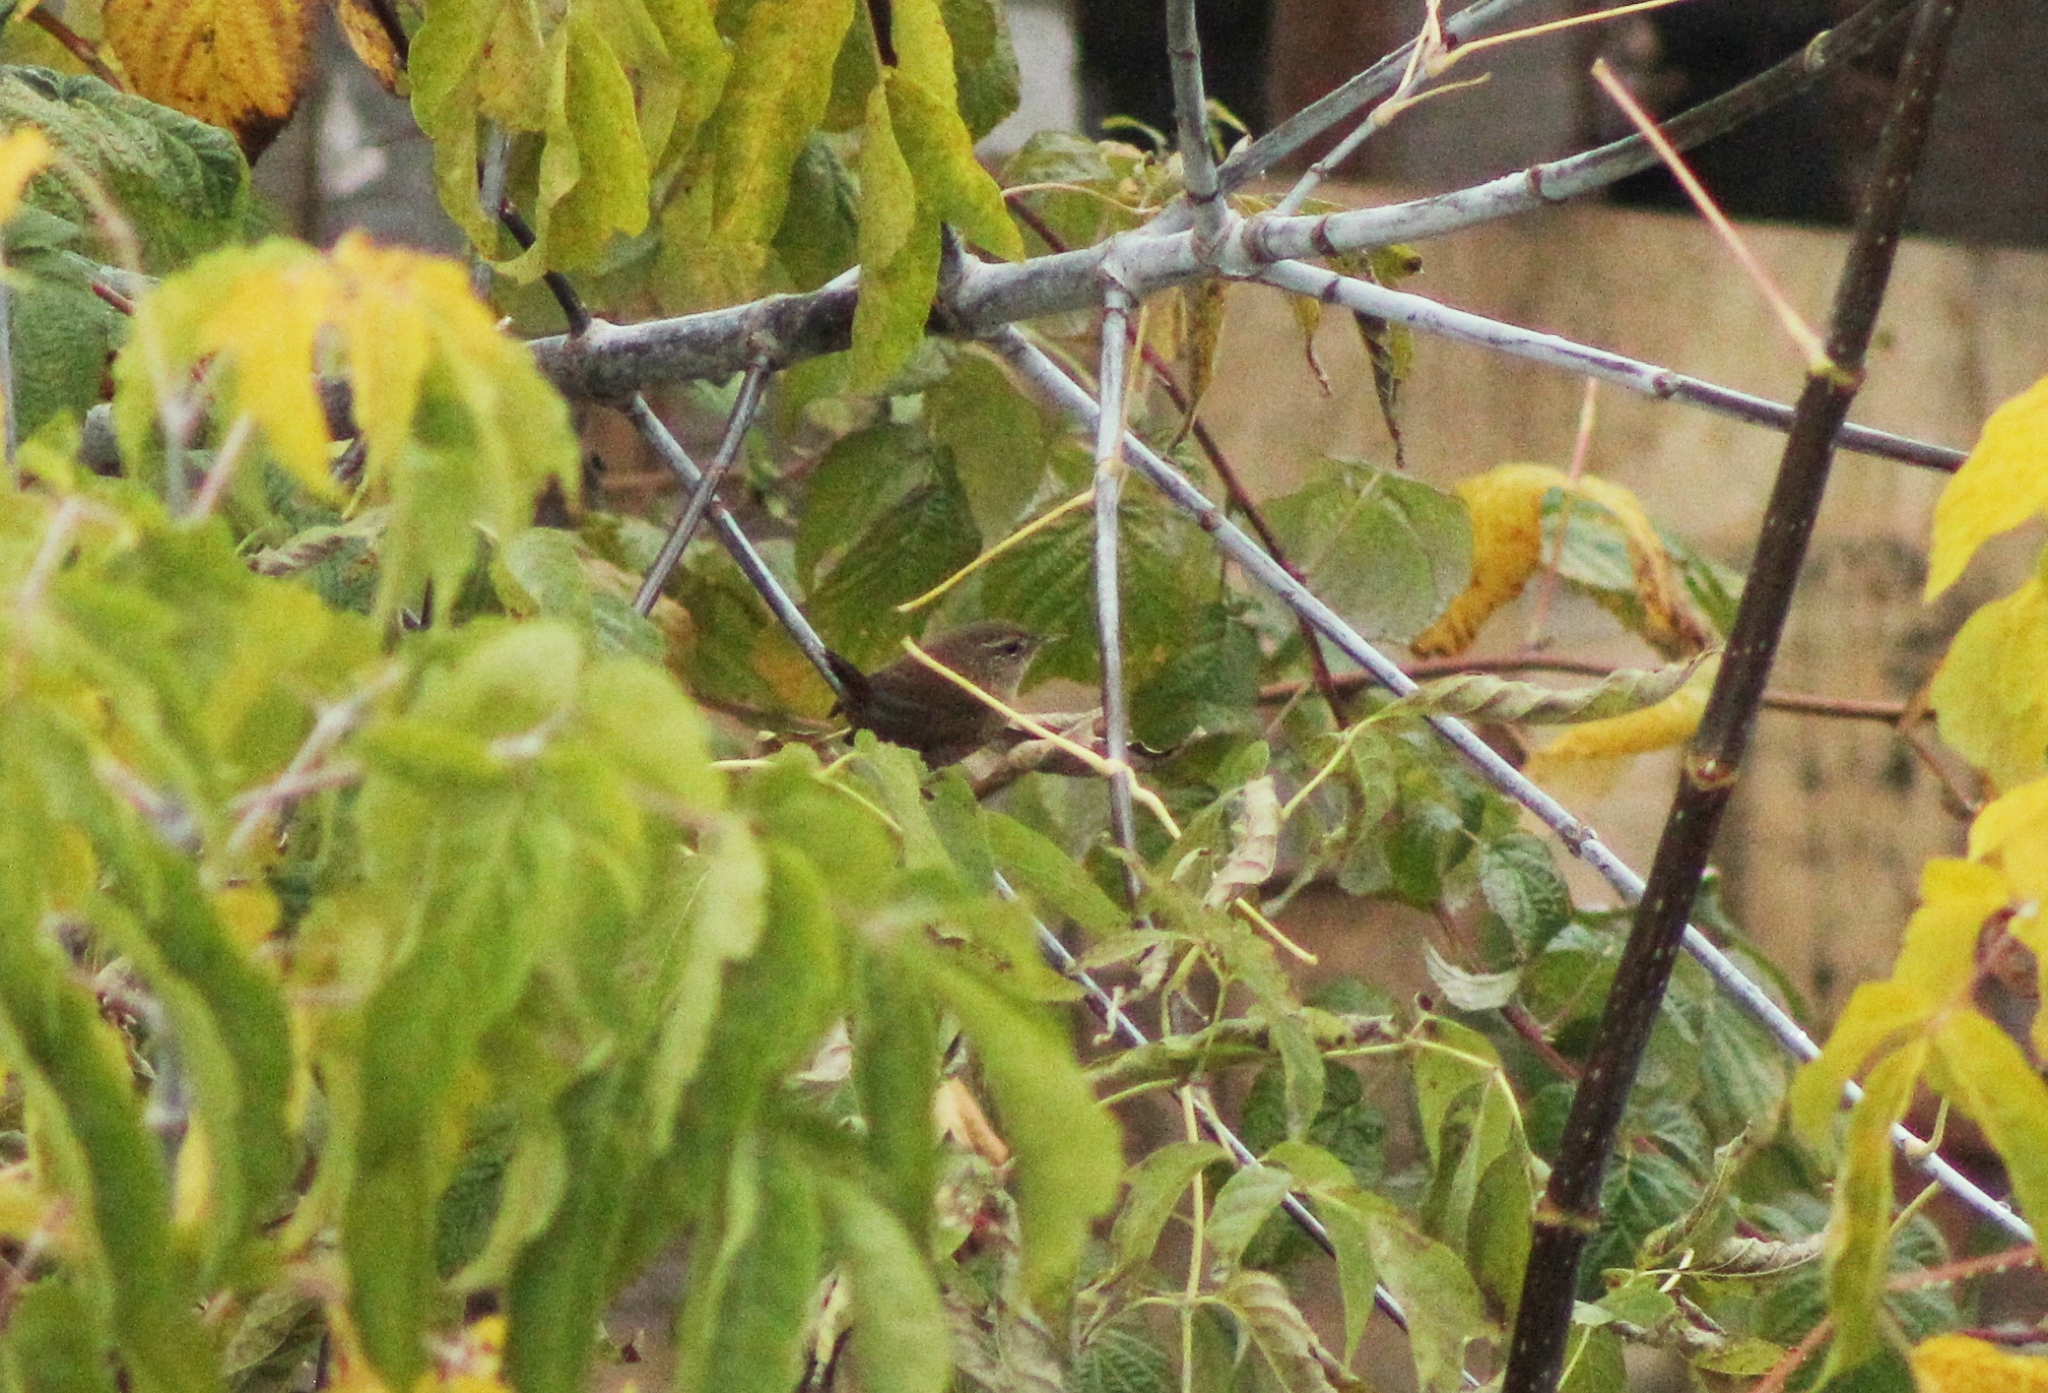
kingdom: Animalia
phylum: Chordata
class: Aves
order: Passeriformes
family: Troglodytidae
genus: Troglodytes
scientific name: Troglodytes troglodytes
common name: Eurasian wren
